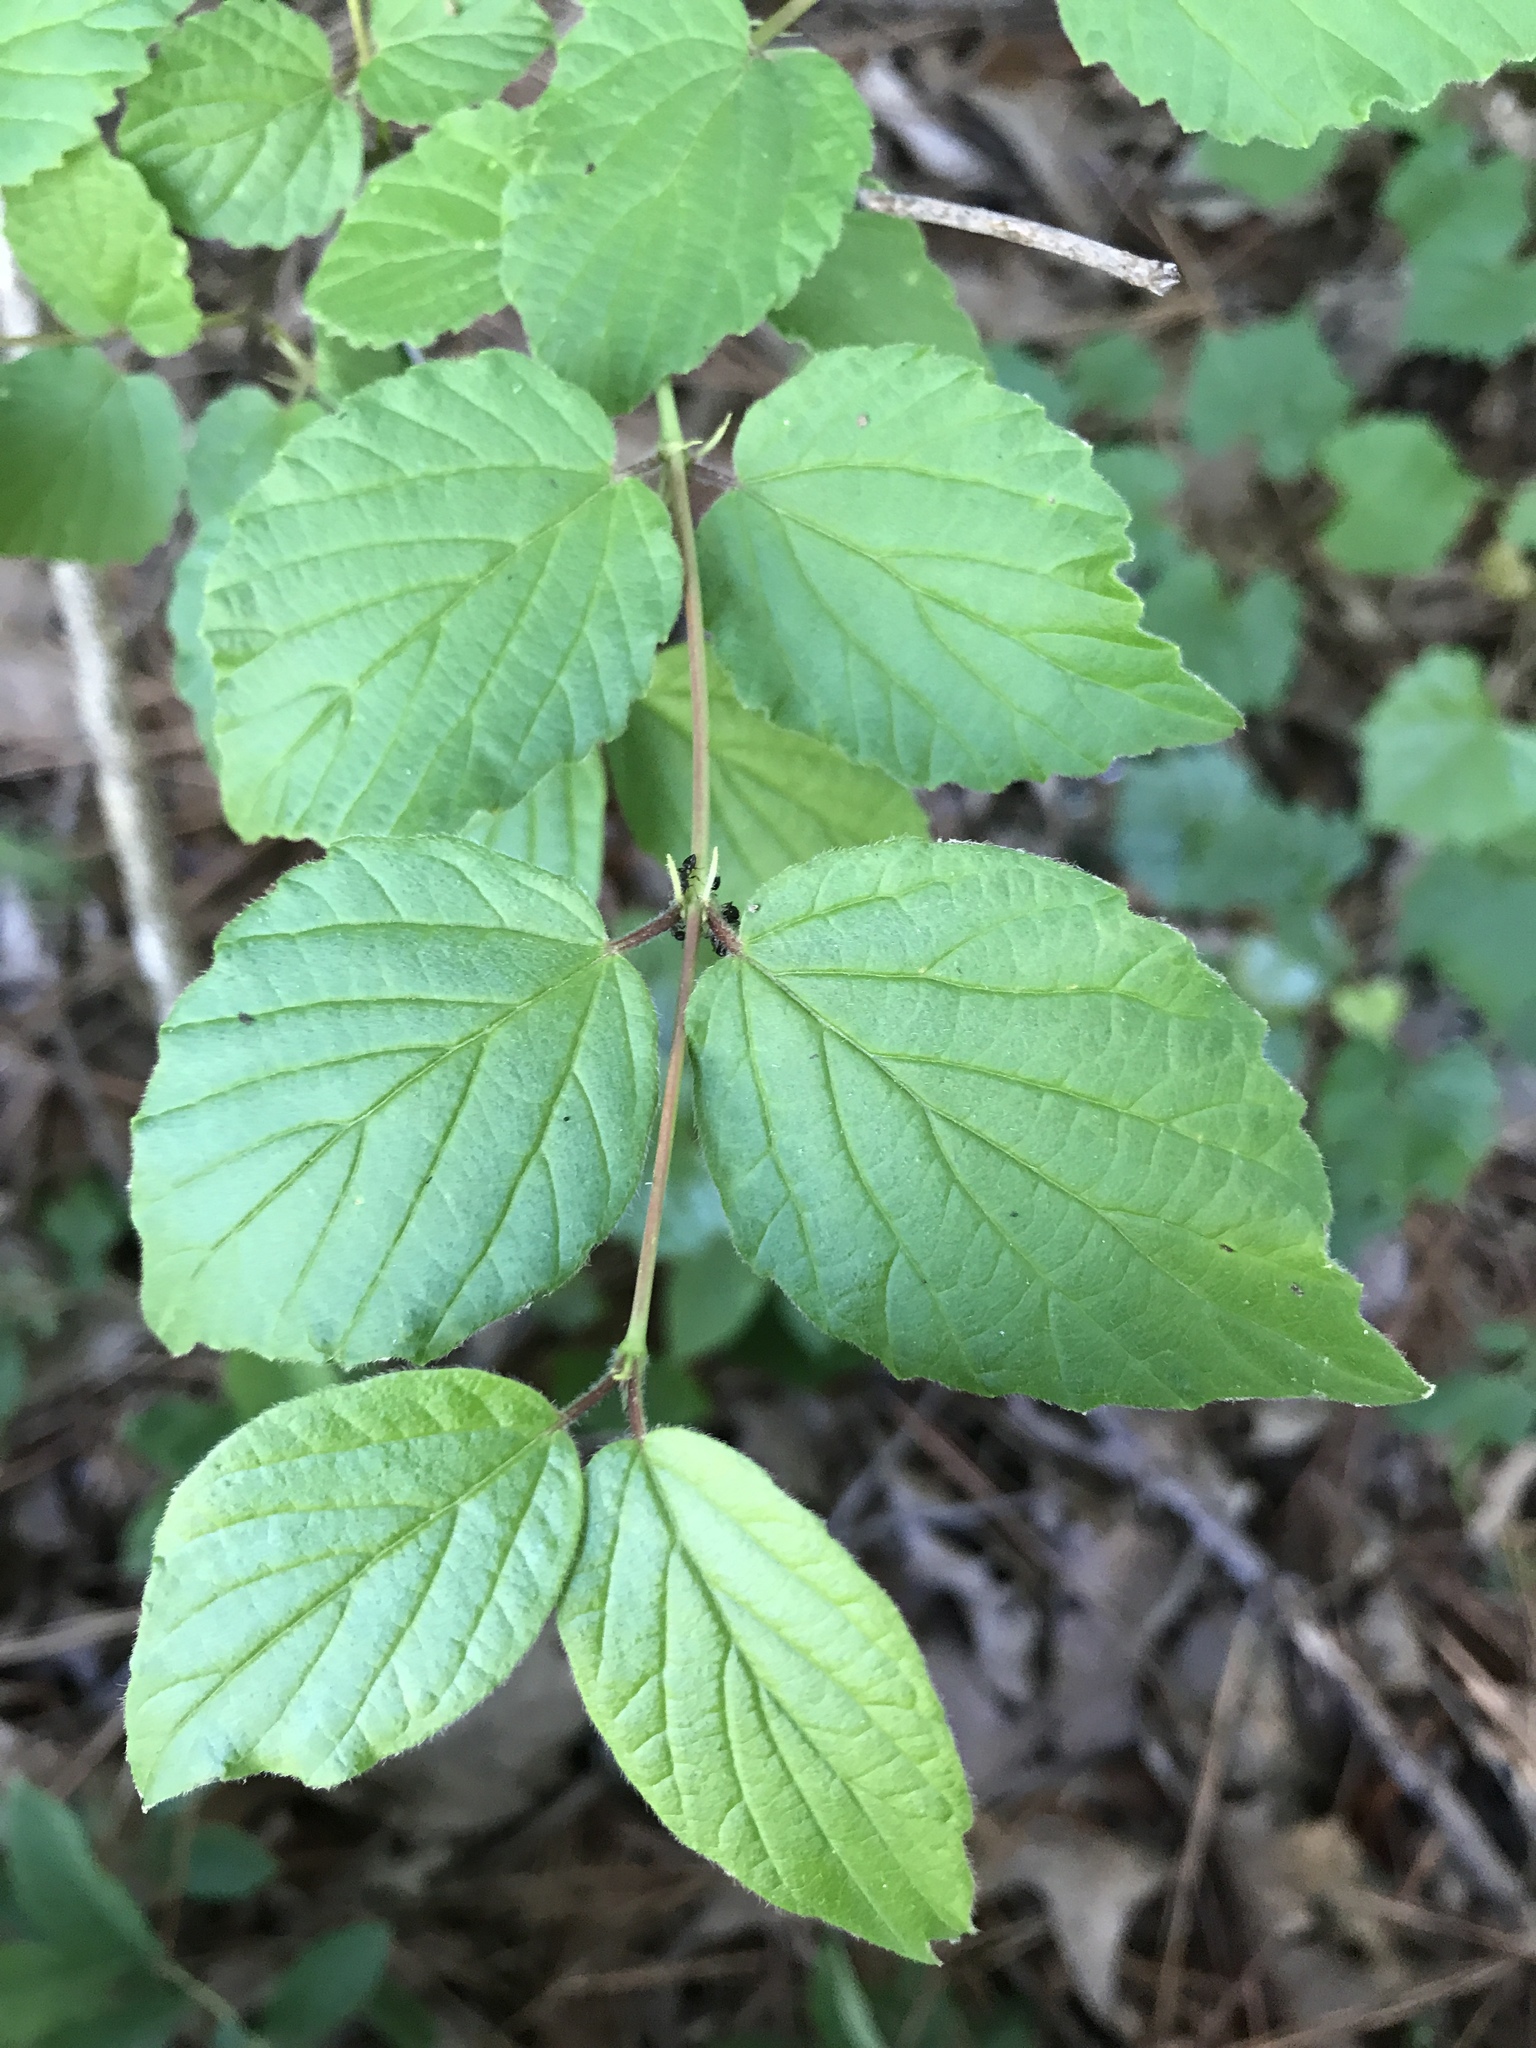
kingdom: Plantae
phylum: Tracheophyta
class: Magnoliopsida
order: Dipsacales
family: Viburnaceae
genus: Viburnum
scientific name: Viburnum rafinesqueanum
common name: Downy arrow-wood
